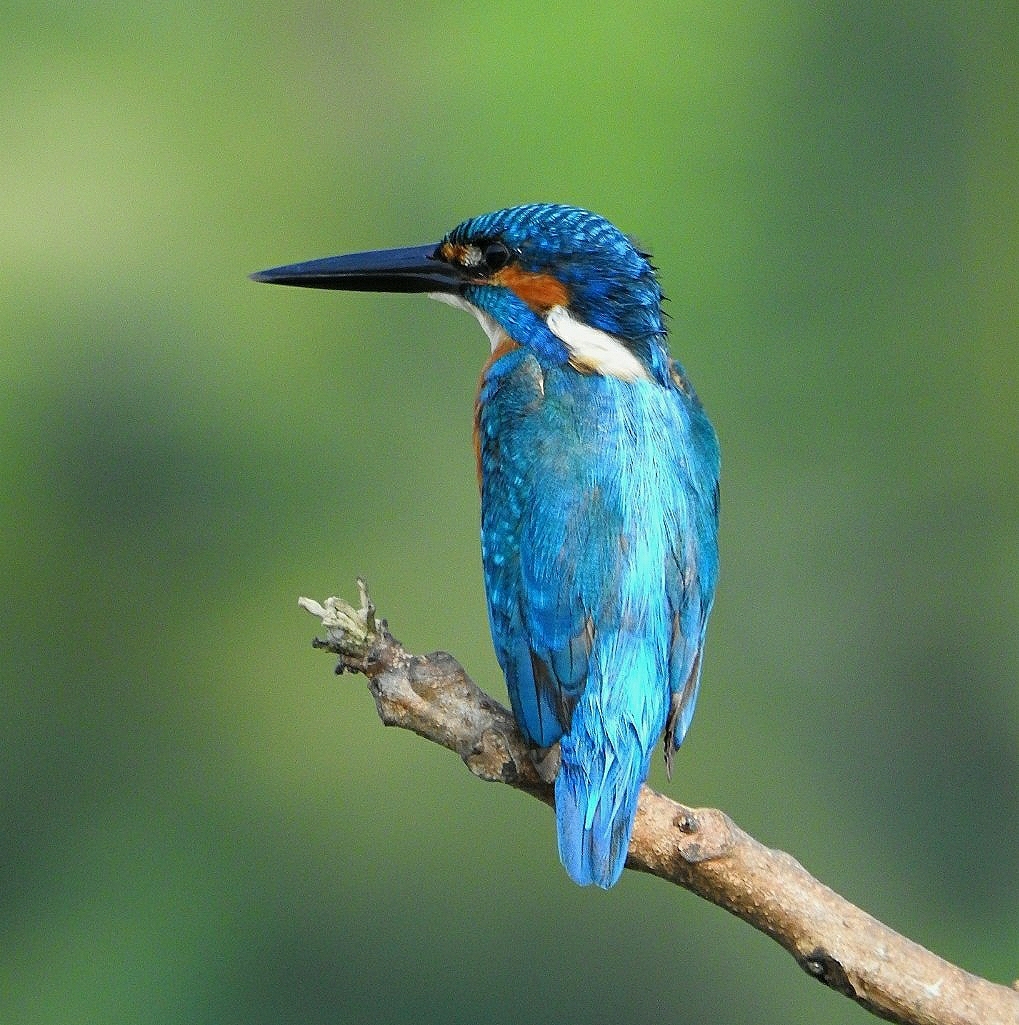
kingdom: Animalia
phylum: Chordata
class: Aves
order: Coraciiformes
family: Alcedinidae
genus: Alcedo
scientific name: Alcedo atthis
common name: Common kingfisher
